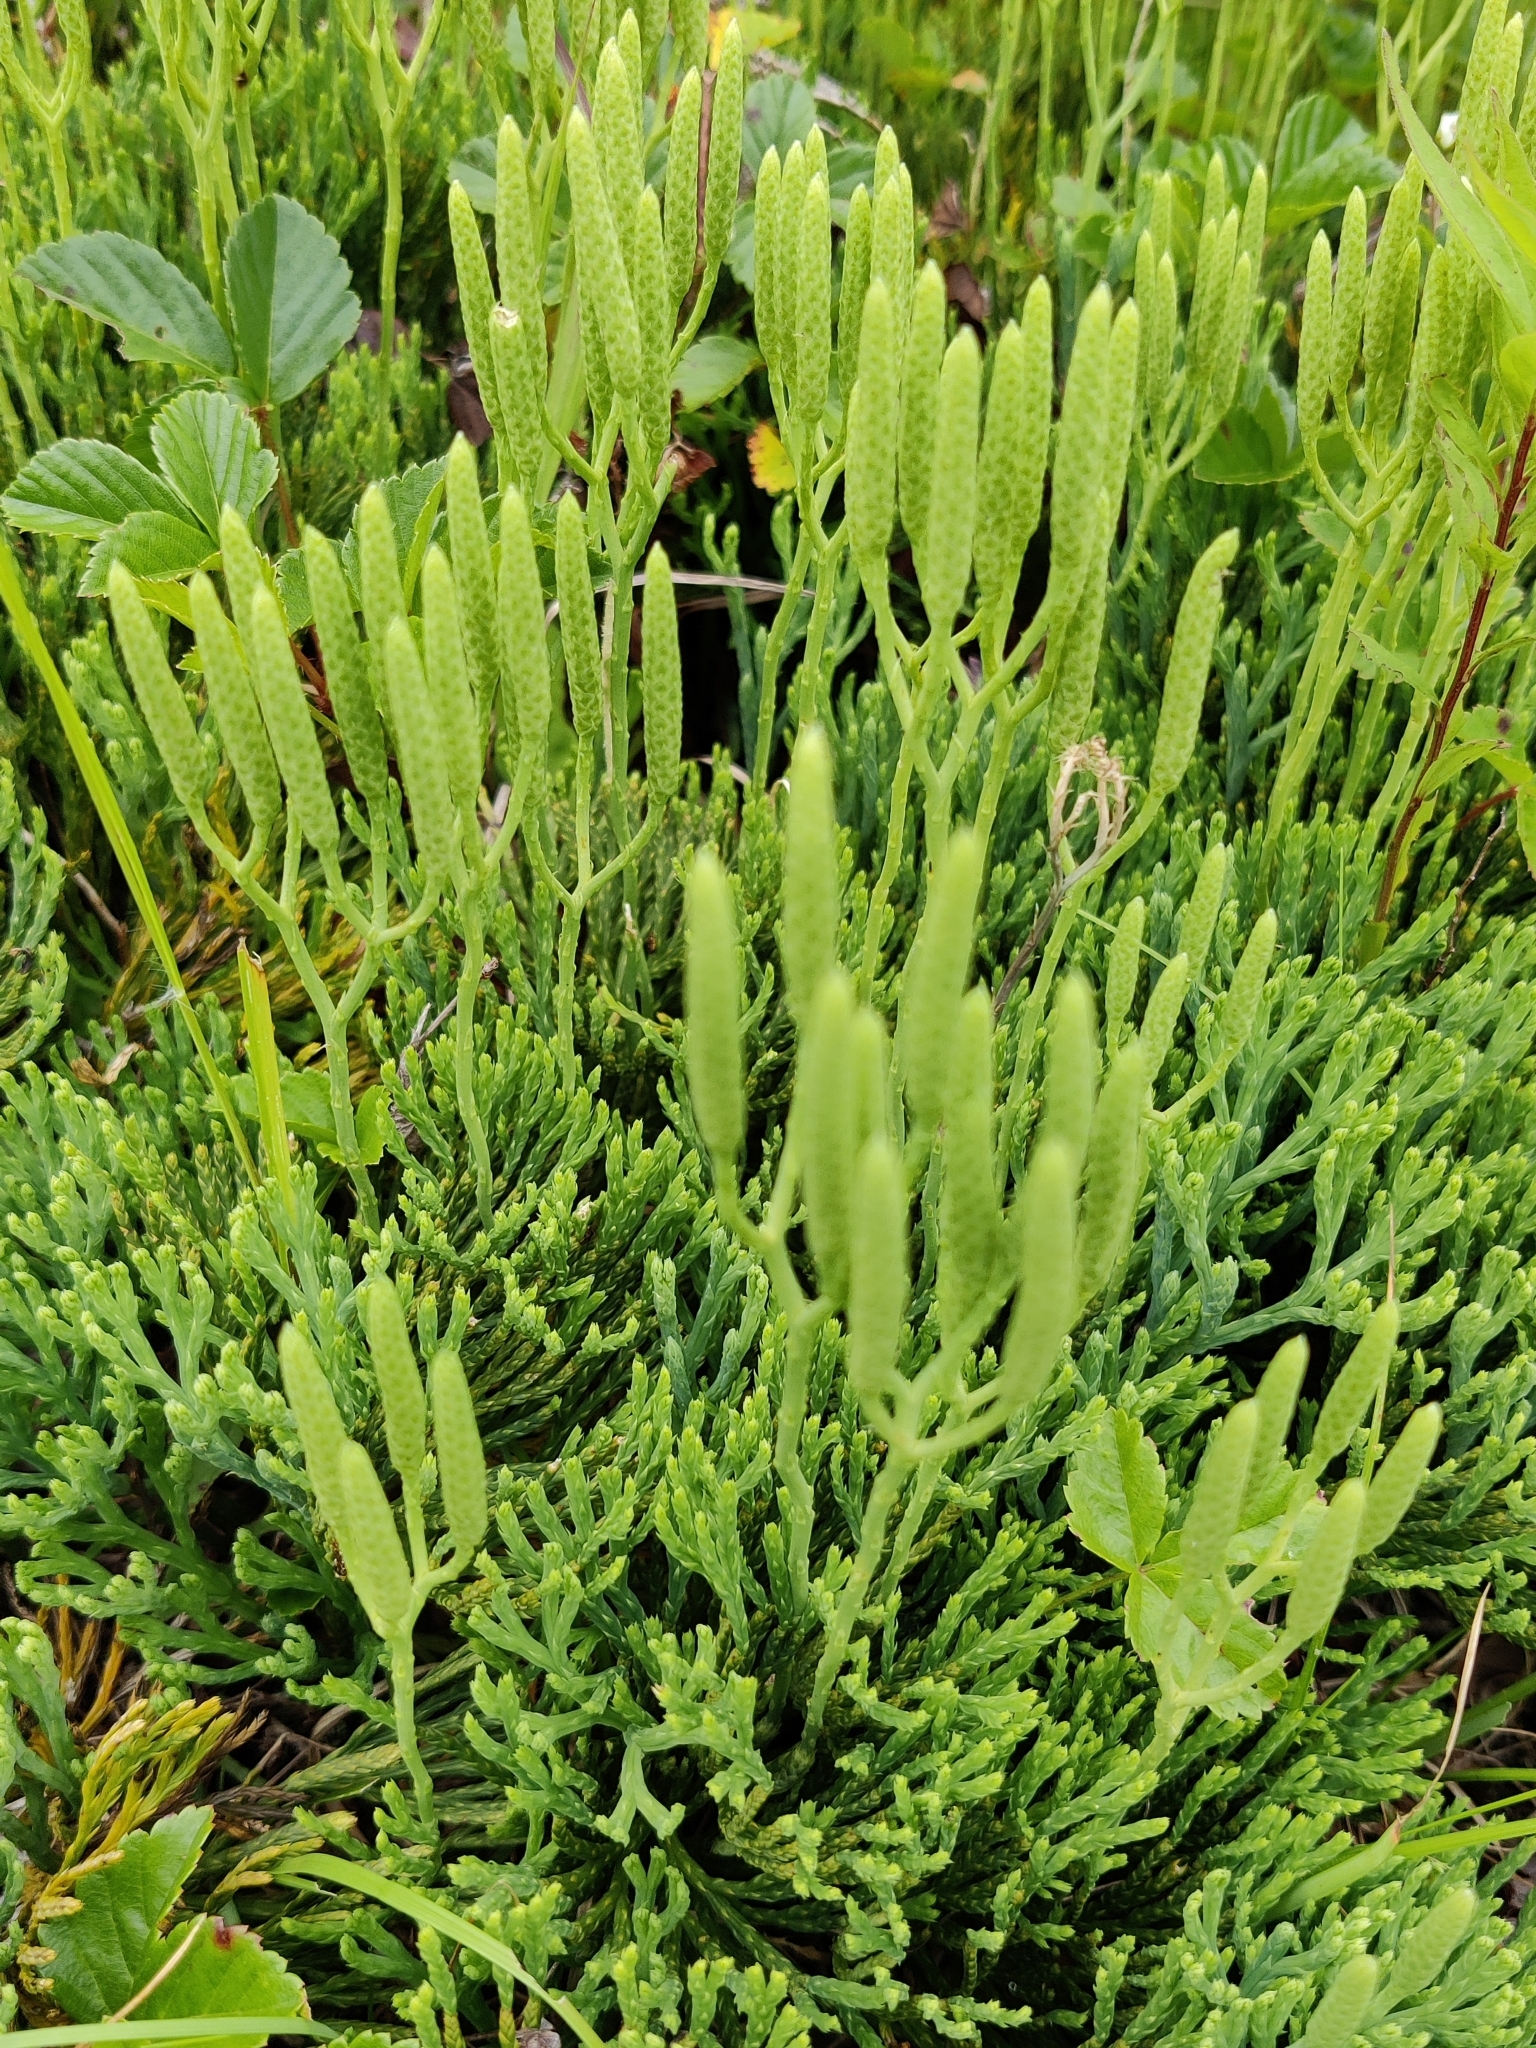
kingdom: Plantae
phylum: Tracheophyta
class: Lycopodiopsida
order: Lycopodiales
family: Lycopodiaceae
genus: Diphasiastrum
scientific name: Diphasiastrum tristachyum
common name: Blue ground-cedar
